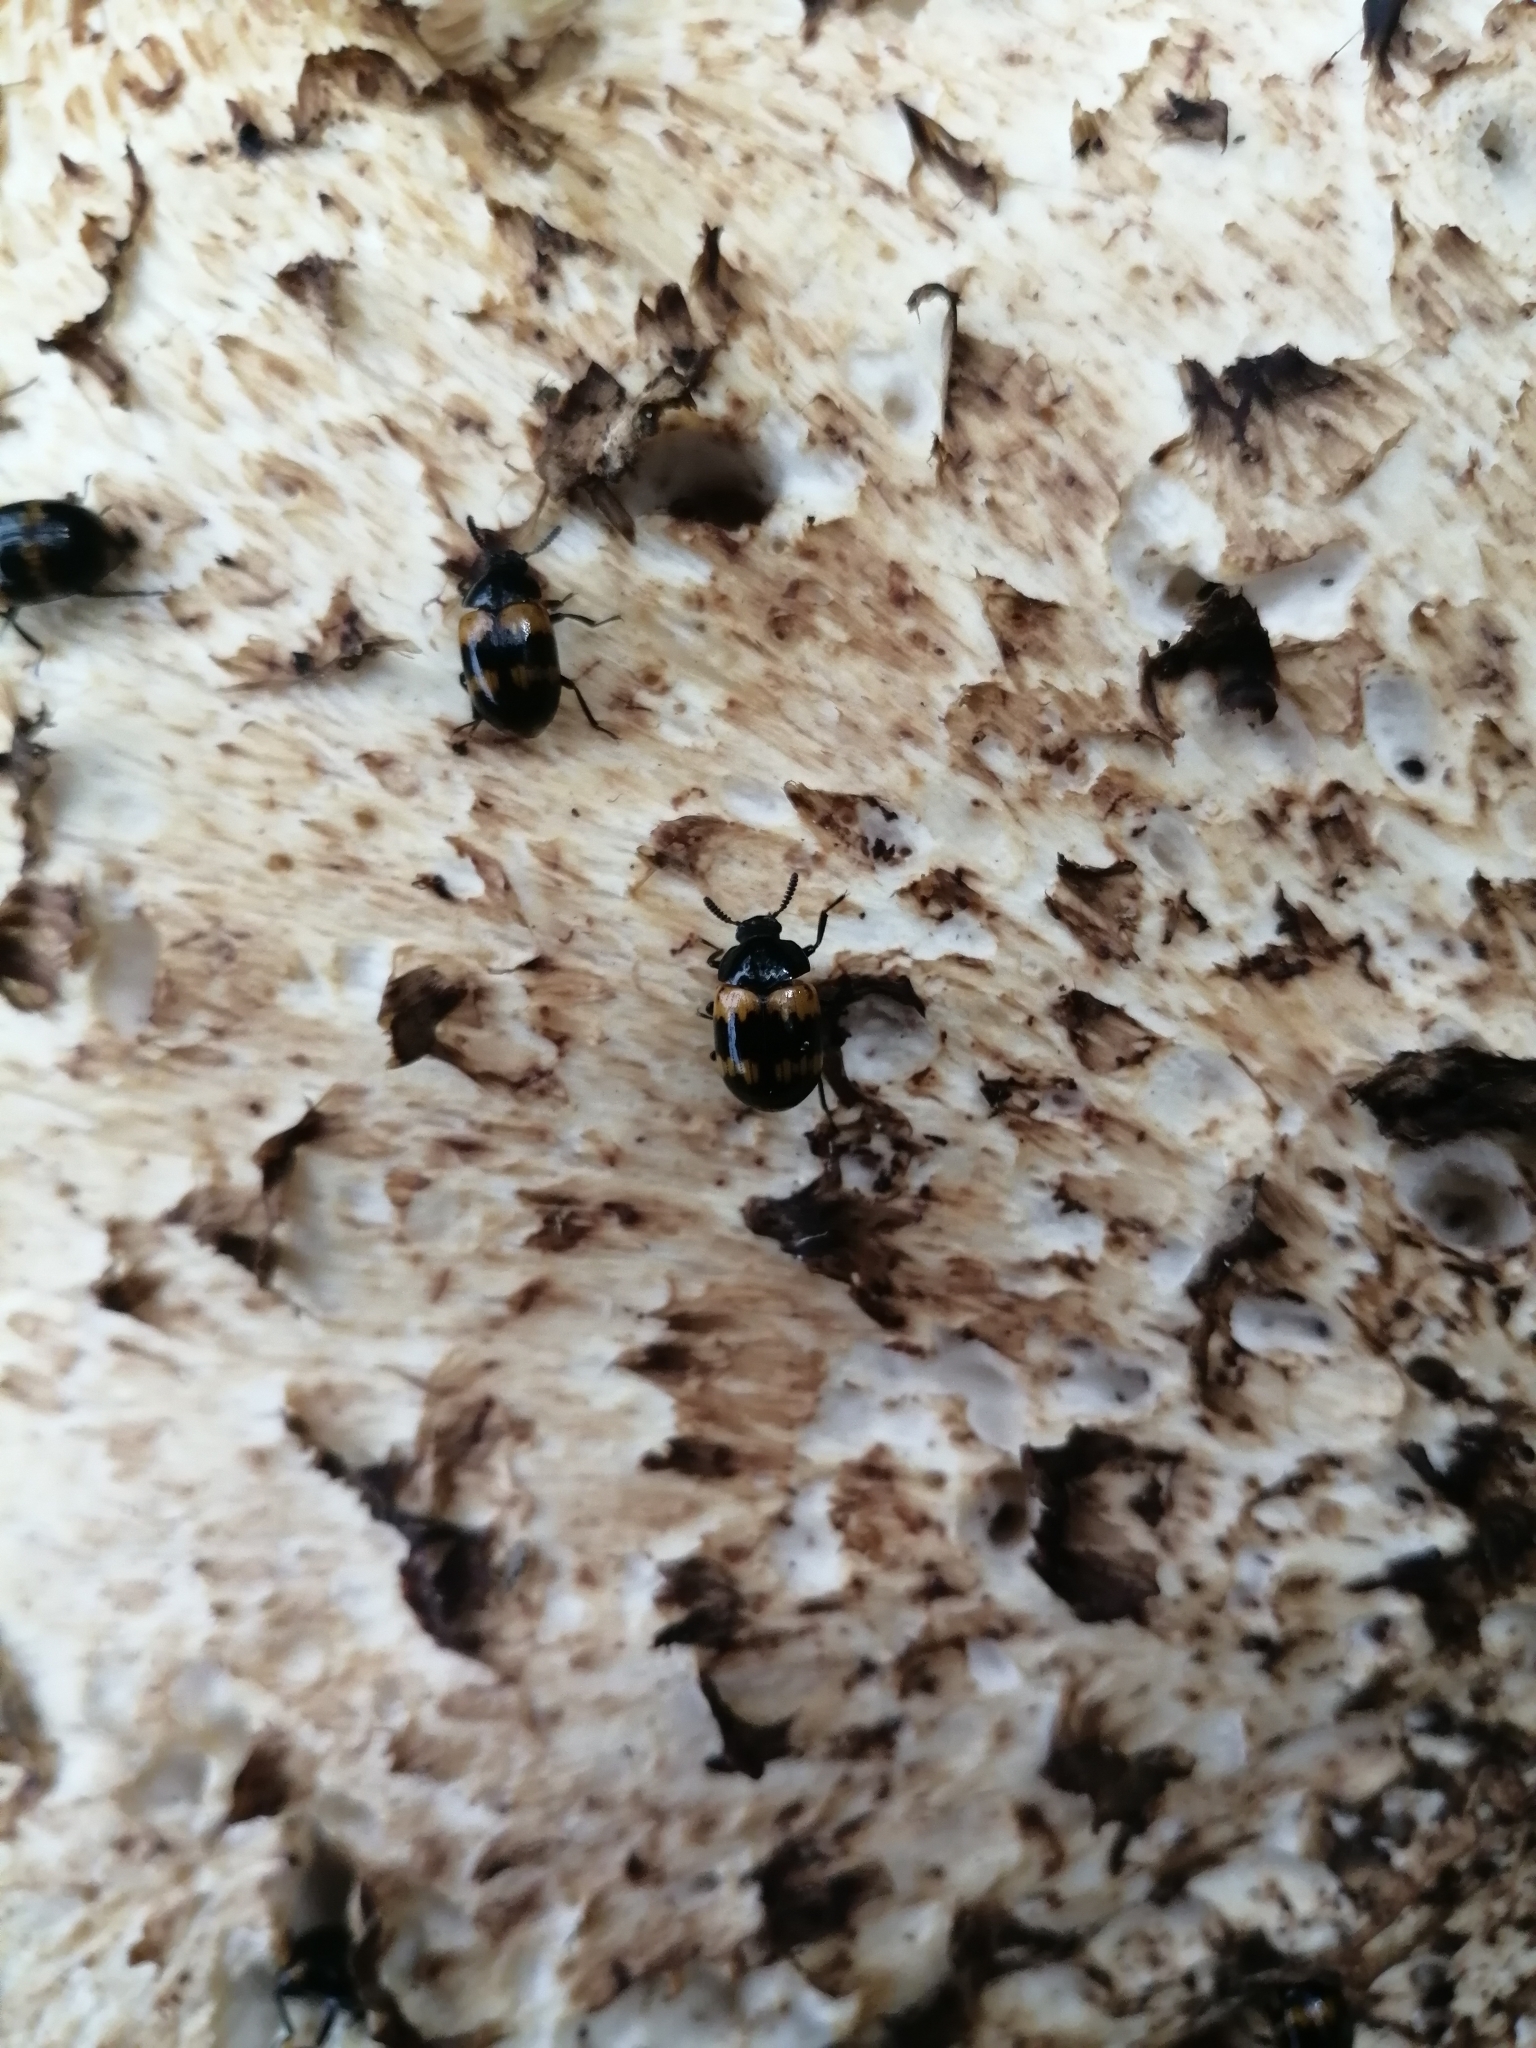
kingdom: Animalia
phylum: Arthropoda
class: Insecta
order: Coleoptera
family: Tenebrionidae
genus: Diaperis
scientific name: Diaperis boleti
